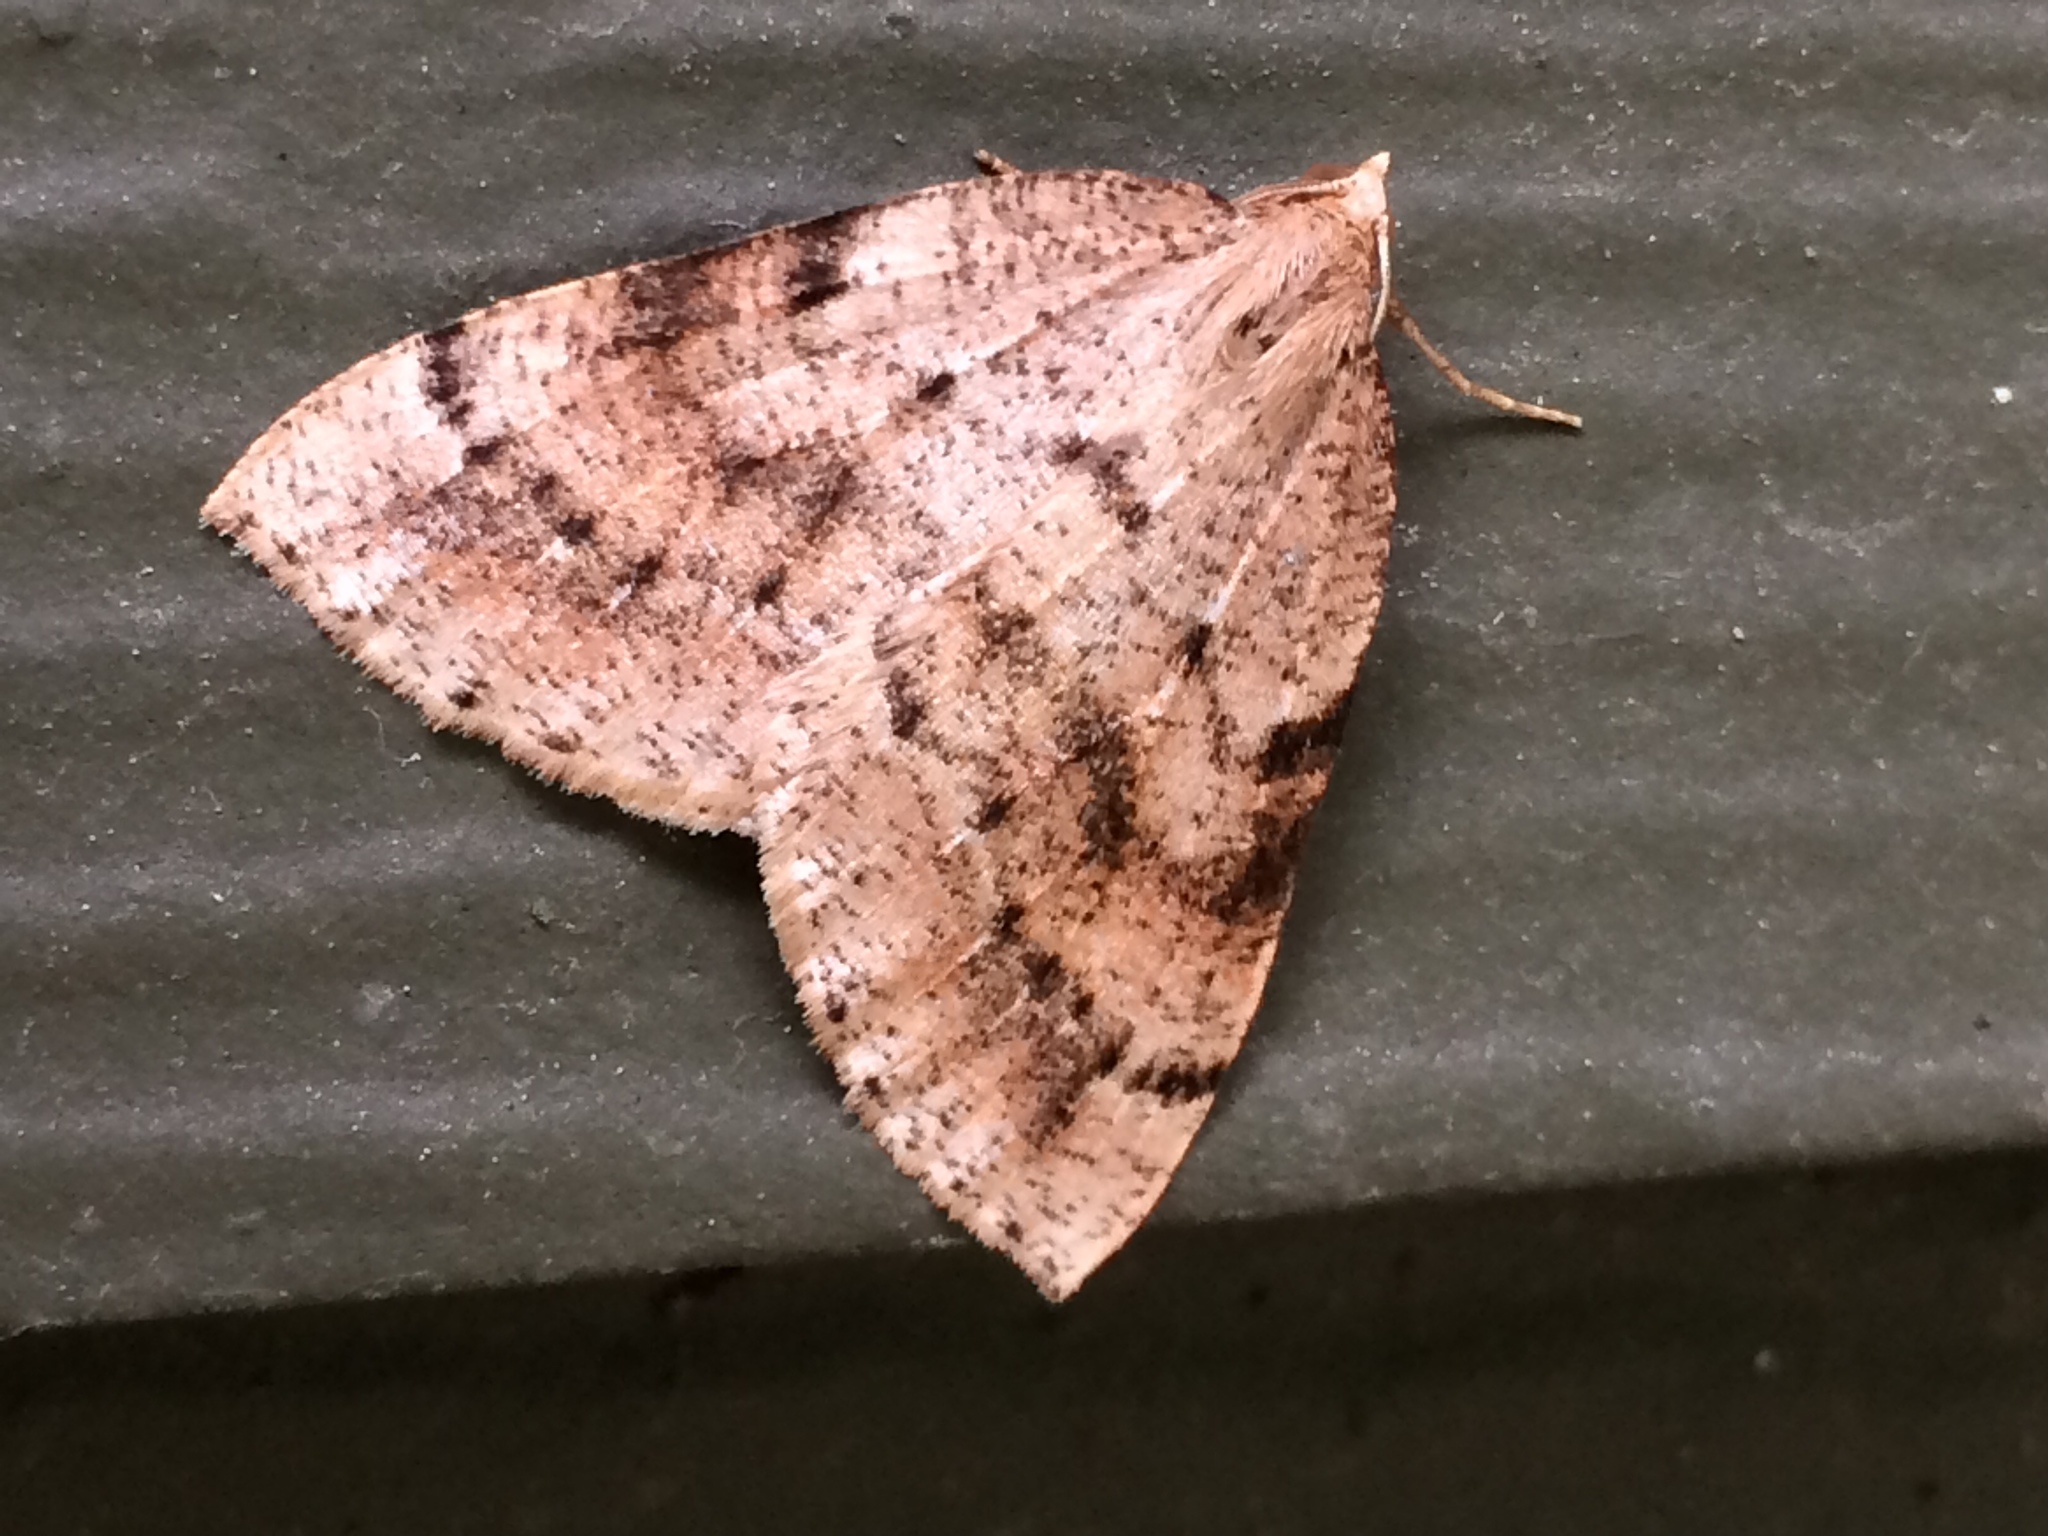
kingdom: Animalia
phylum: Arthropoda
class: Insecta
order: Lepidoptera
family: Geometridae
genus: Thallophaga
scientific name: Thallophaga hyperborea
